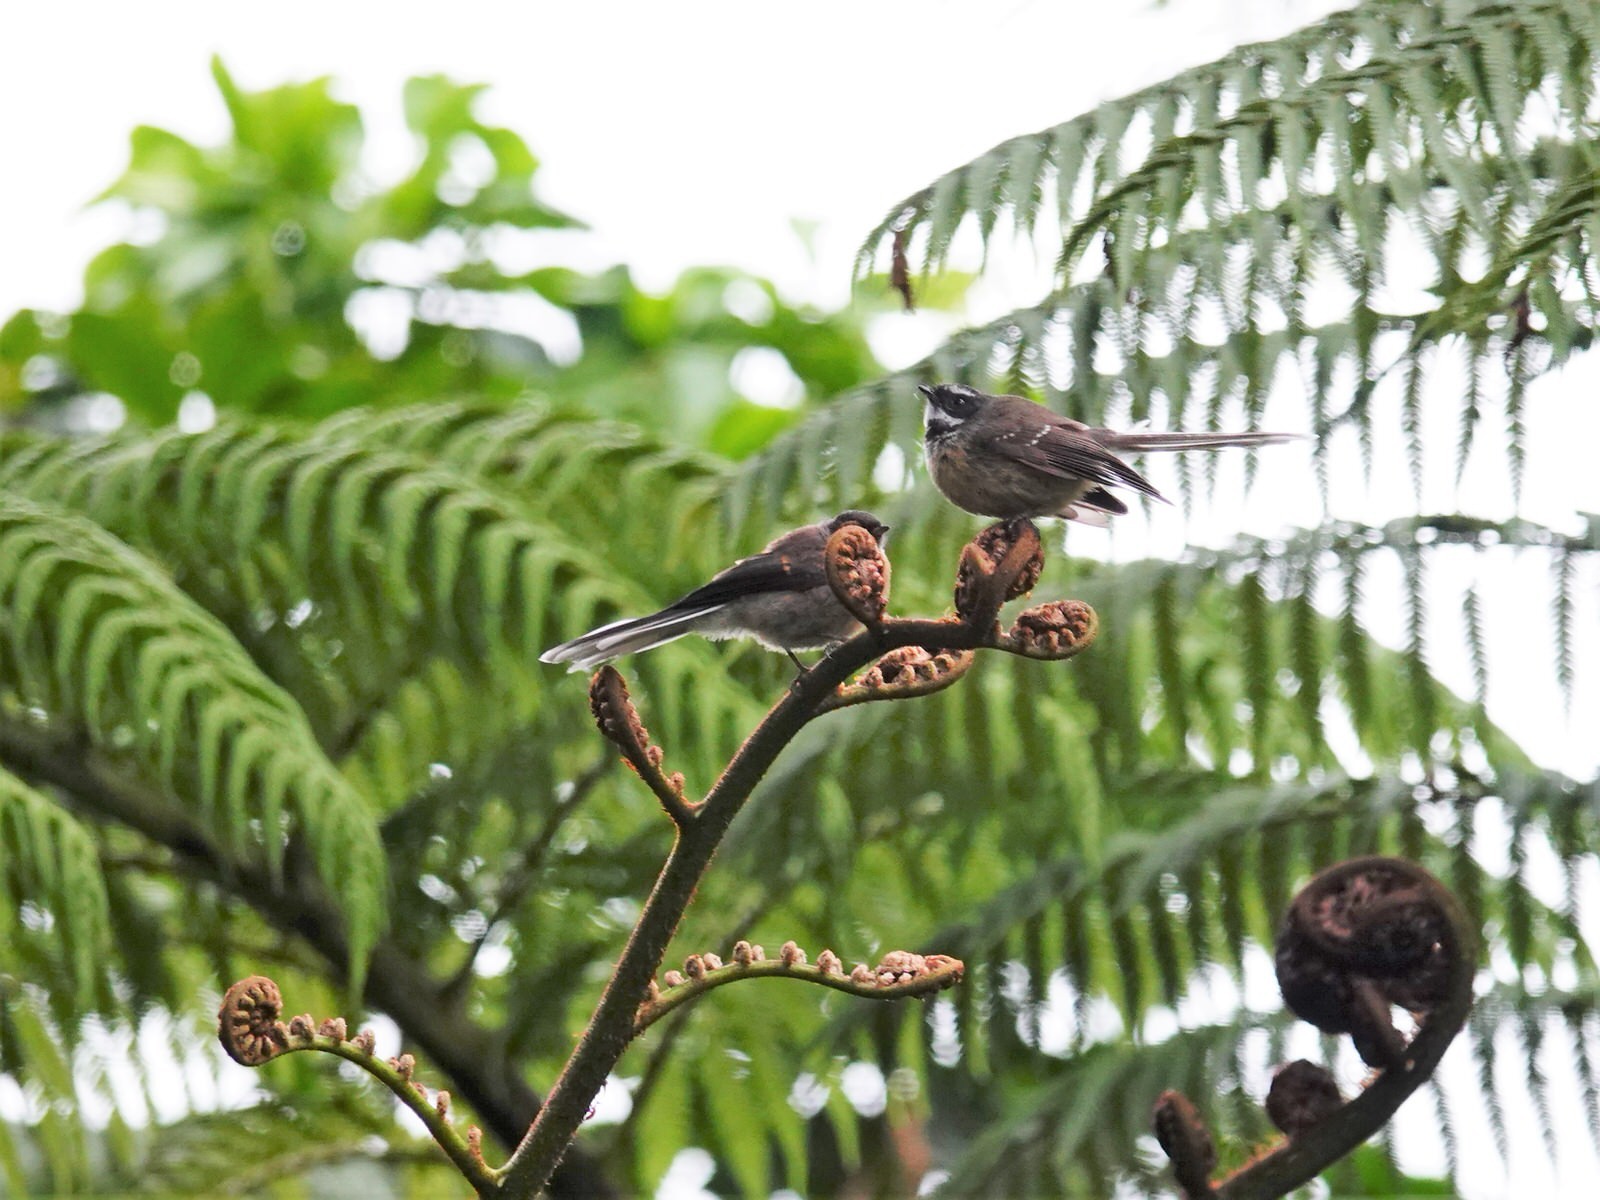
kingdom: Animalia
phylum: Chordata
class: Aves
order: Passeriformes
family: Rhipiduridae
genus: Rhipidura
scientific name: Rhipidura fuliginosa
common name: New zealand fantail
